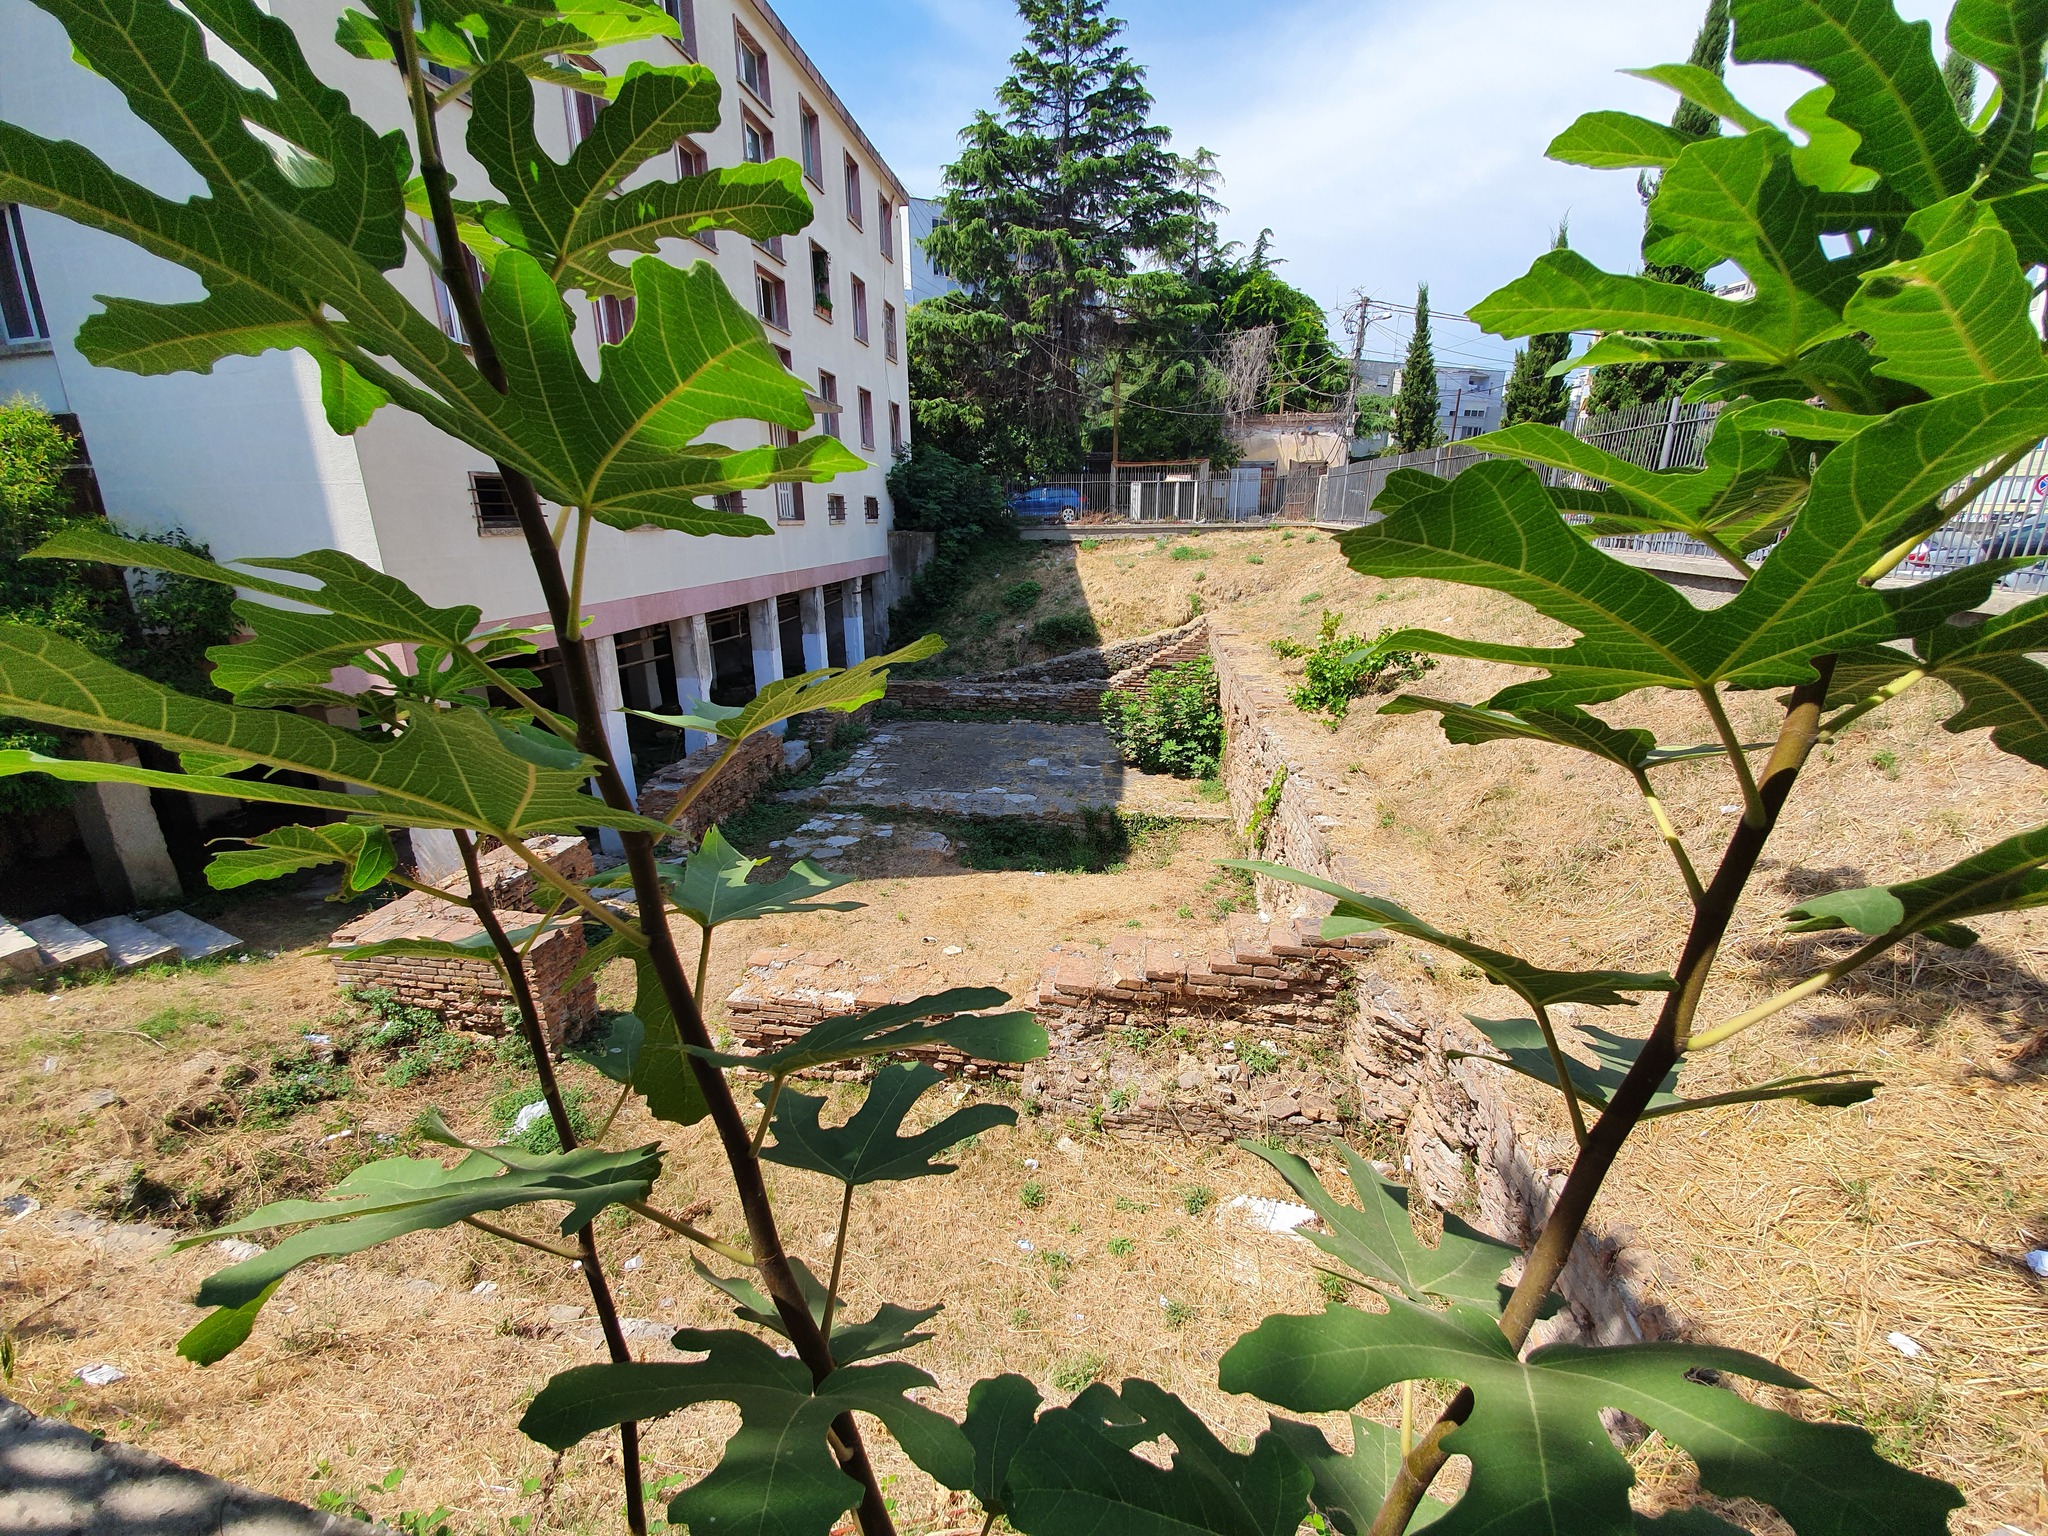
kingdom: Plantae
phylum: Tracheophyta
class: Magnoliopsida
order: Rosales
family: Moraceae
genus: Ficus
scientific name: Ficus carica
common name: Fig
